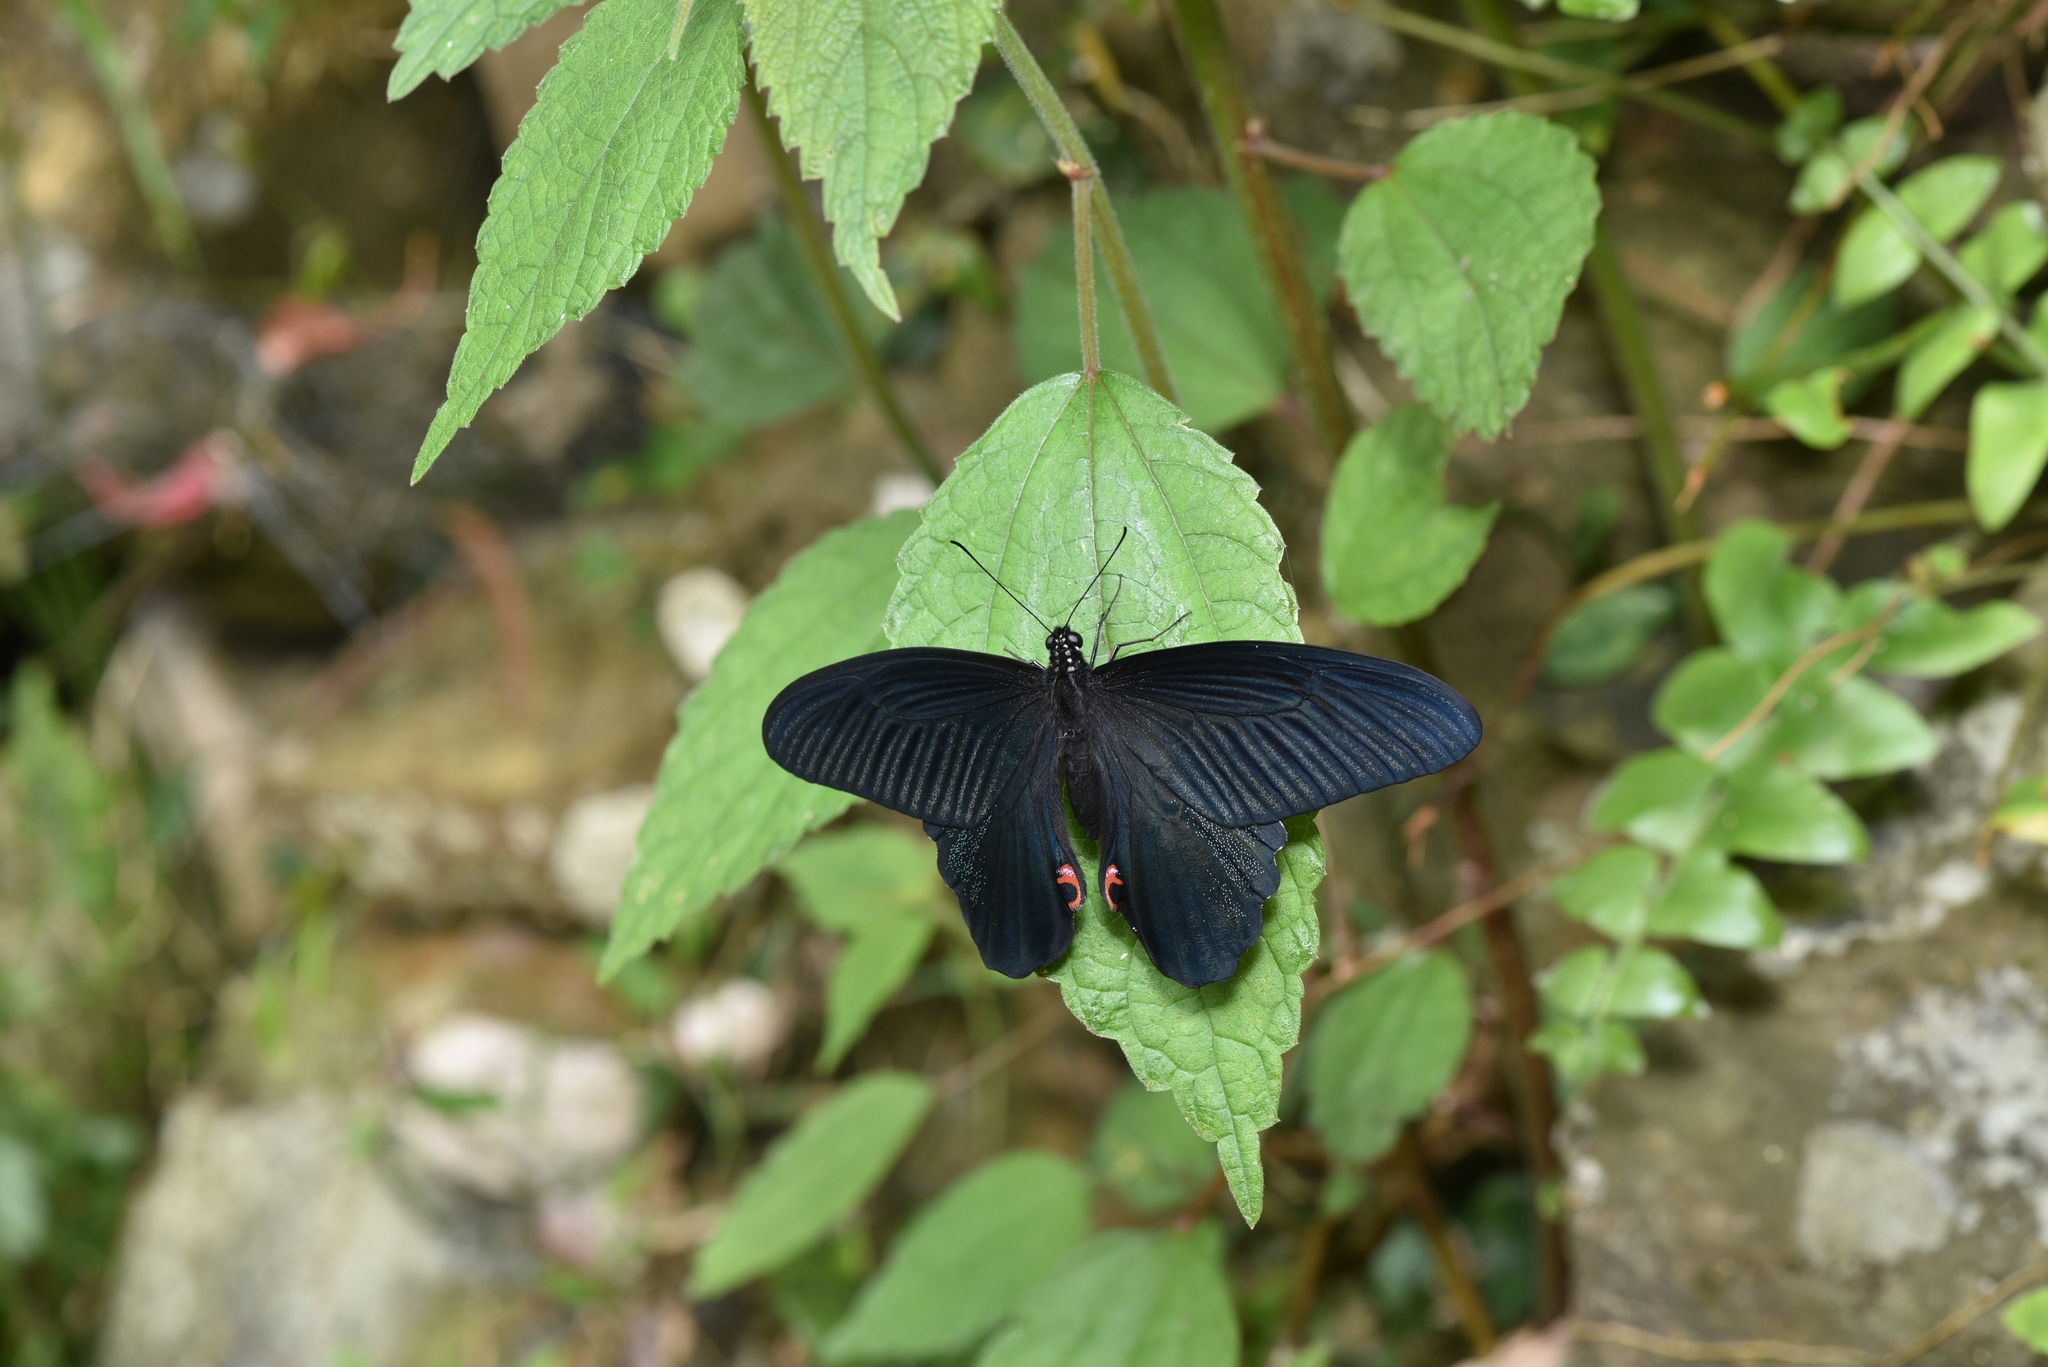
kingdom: Animalia
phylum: Arthropoda
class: Insecta
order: Lepidoptera
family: Papilionidae
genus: Papilio
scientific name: Papilio protenor
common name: Spangle
